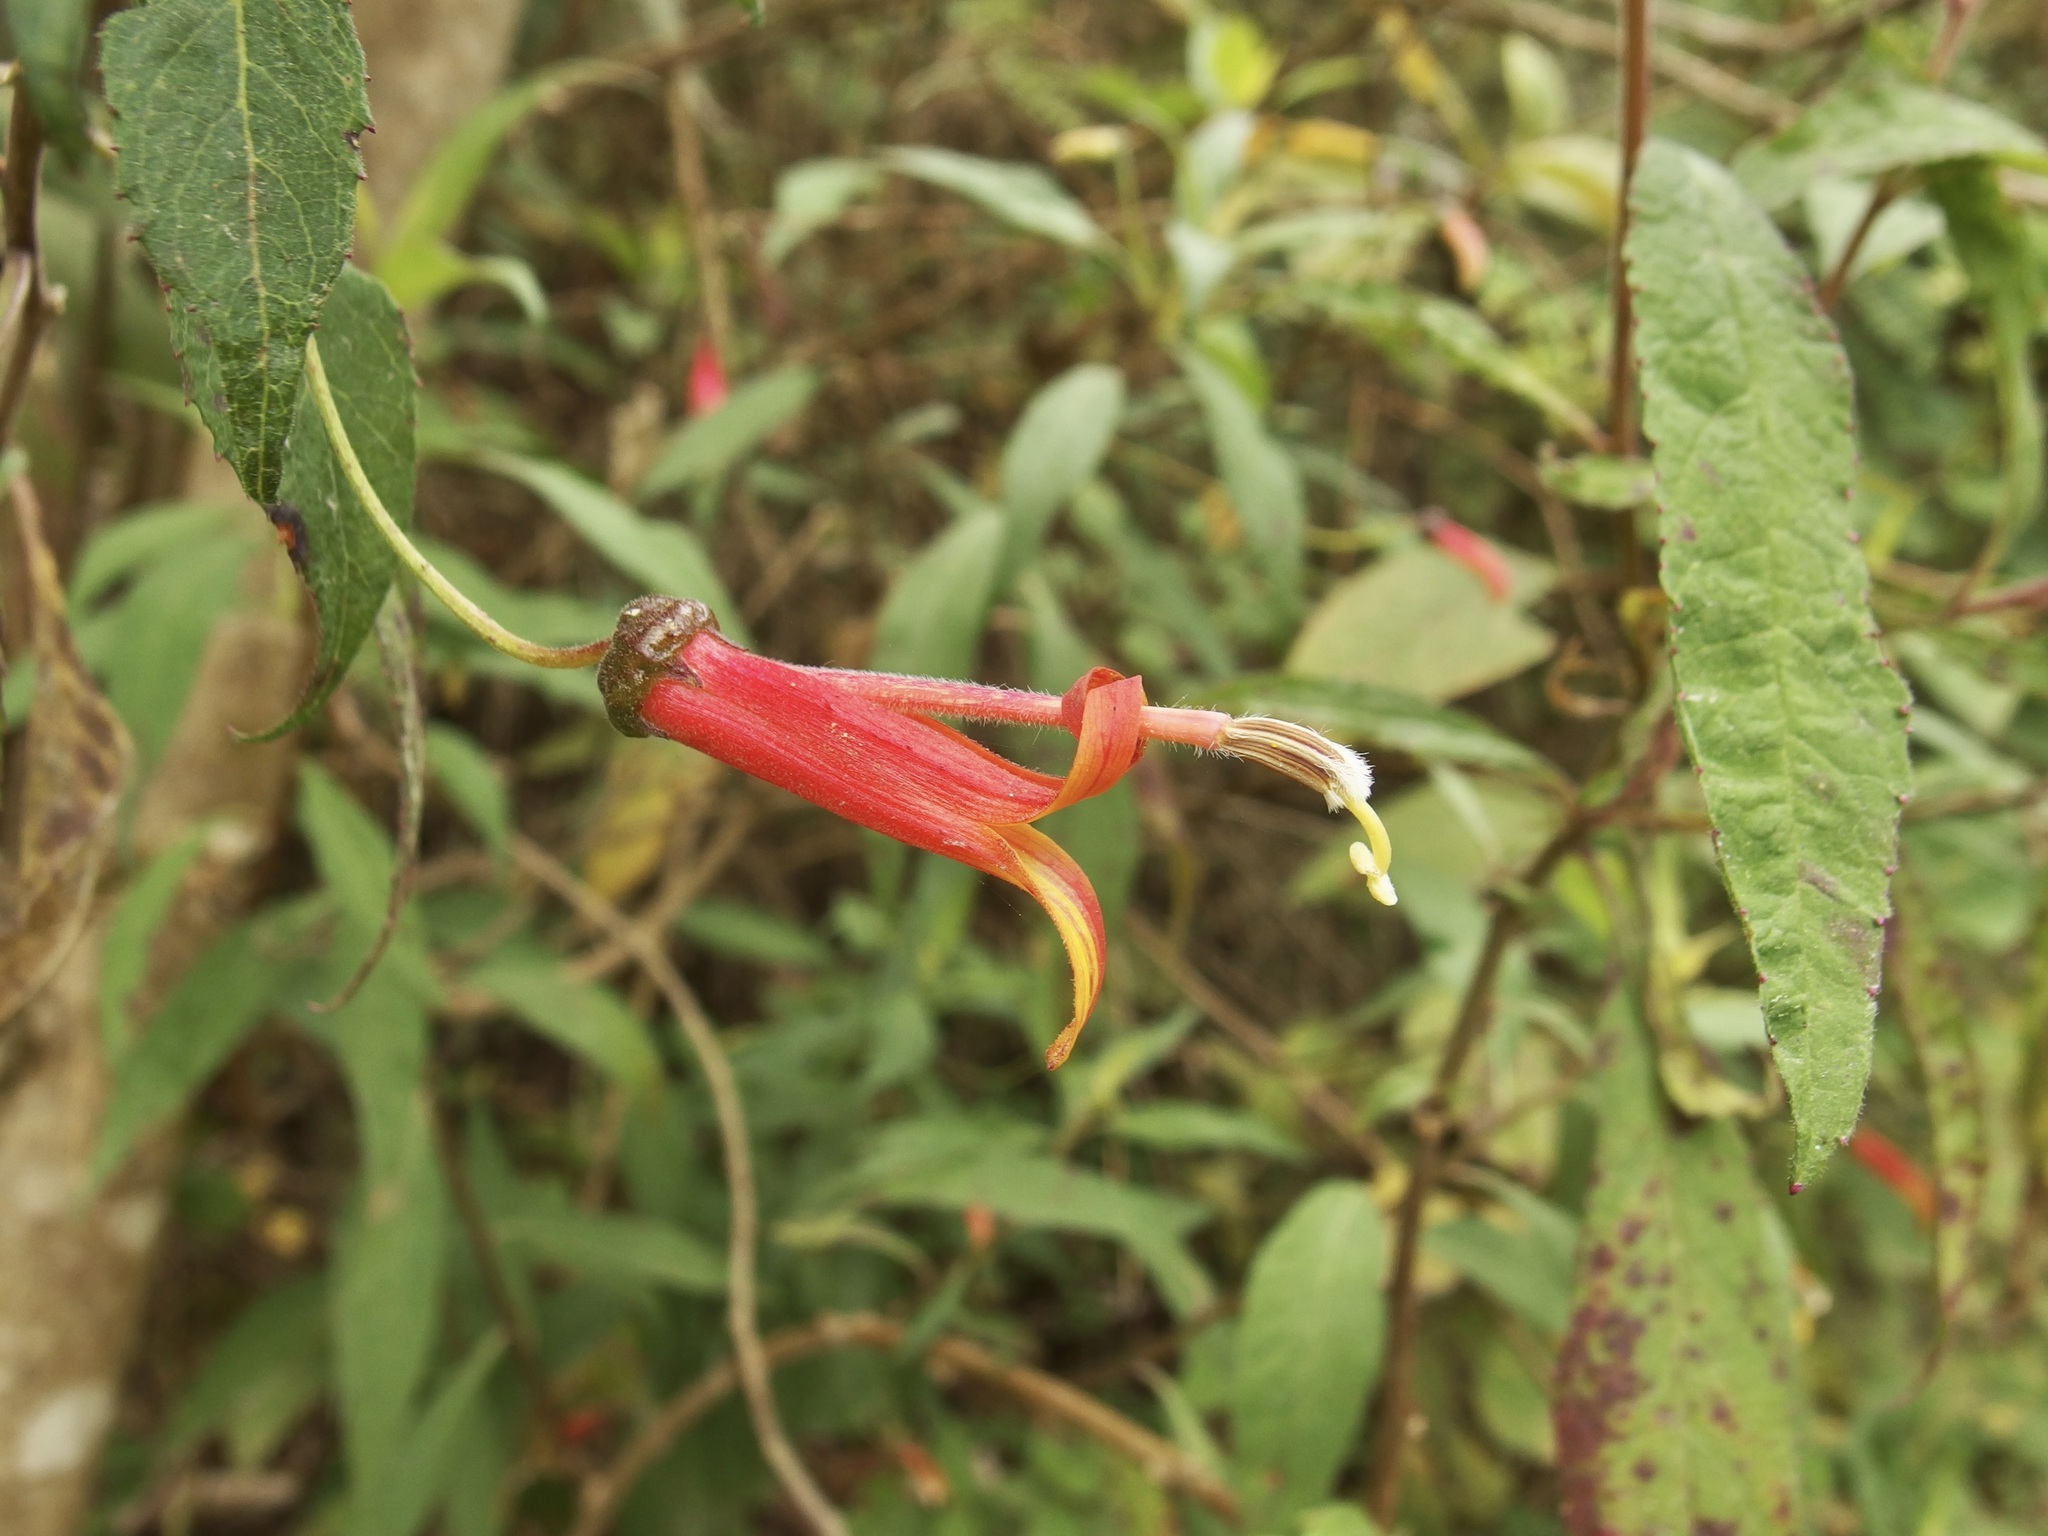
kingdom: Plantae
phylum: Tracheophyta
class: Magnoliopsida
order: Asterales
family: Campanulaceae
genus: Lobelia
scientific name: Lobelia laxiflora
